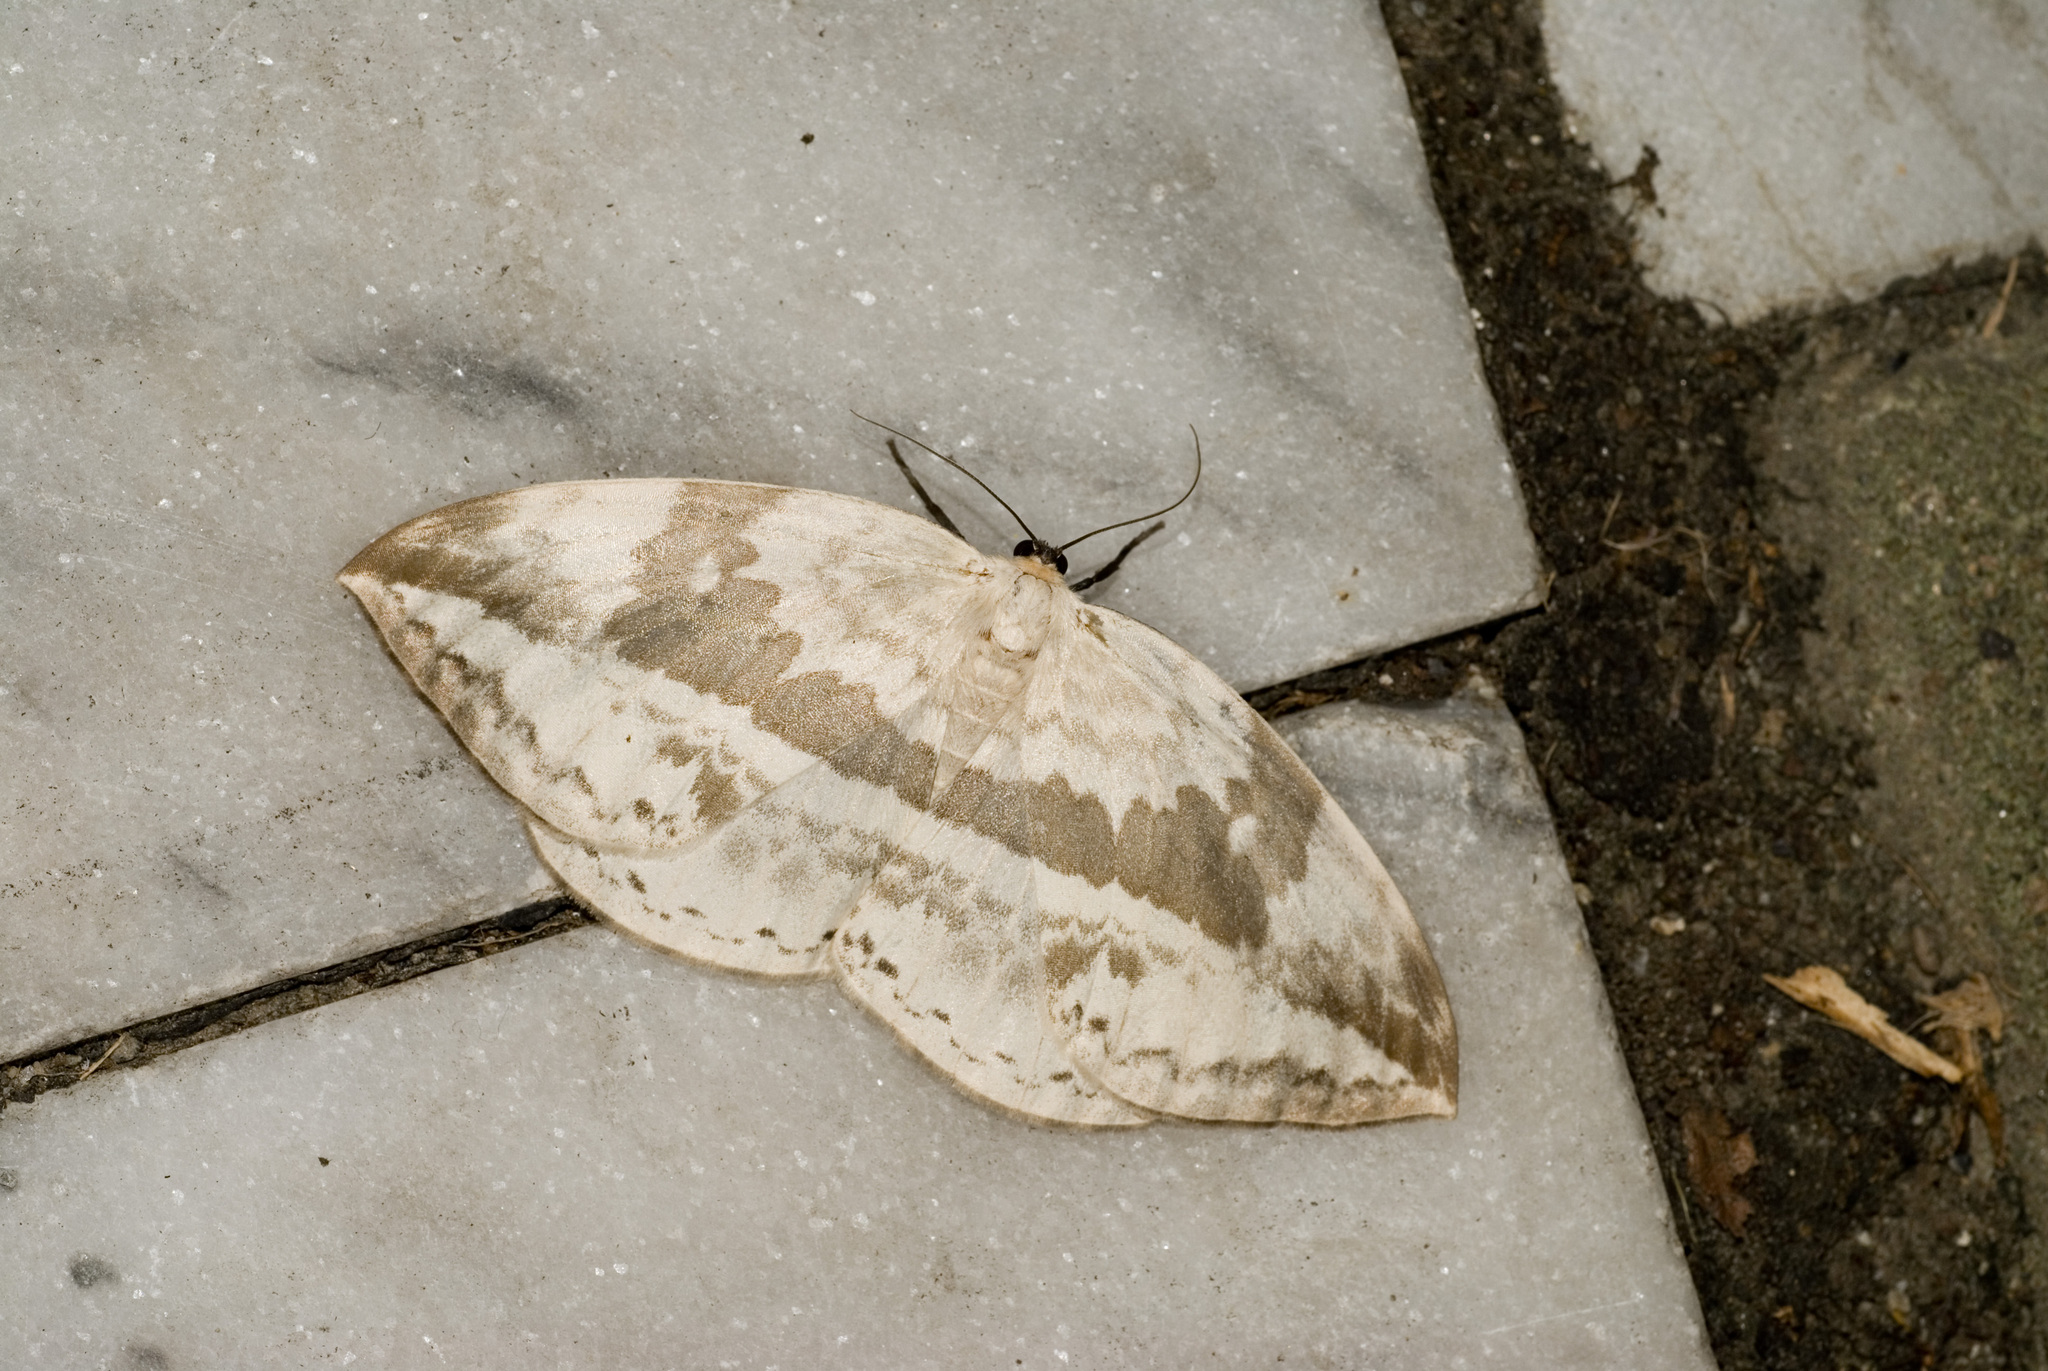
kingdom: Animalia
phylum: Arthropoda
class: Insecta
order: Lepidoptera
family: Drepanidae
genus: Cyclidia
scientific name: Cyclidia substigmaria
